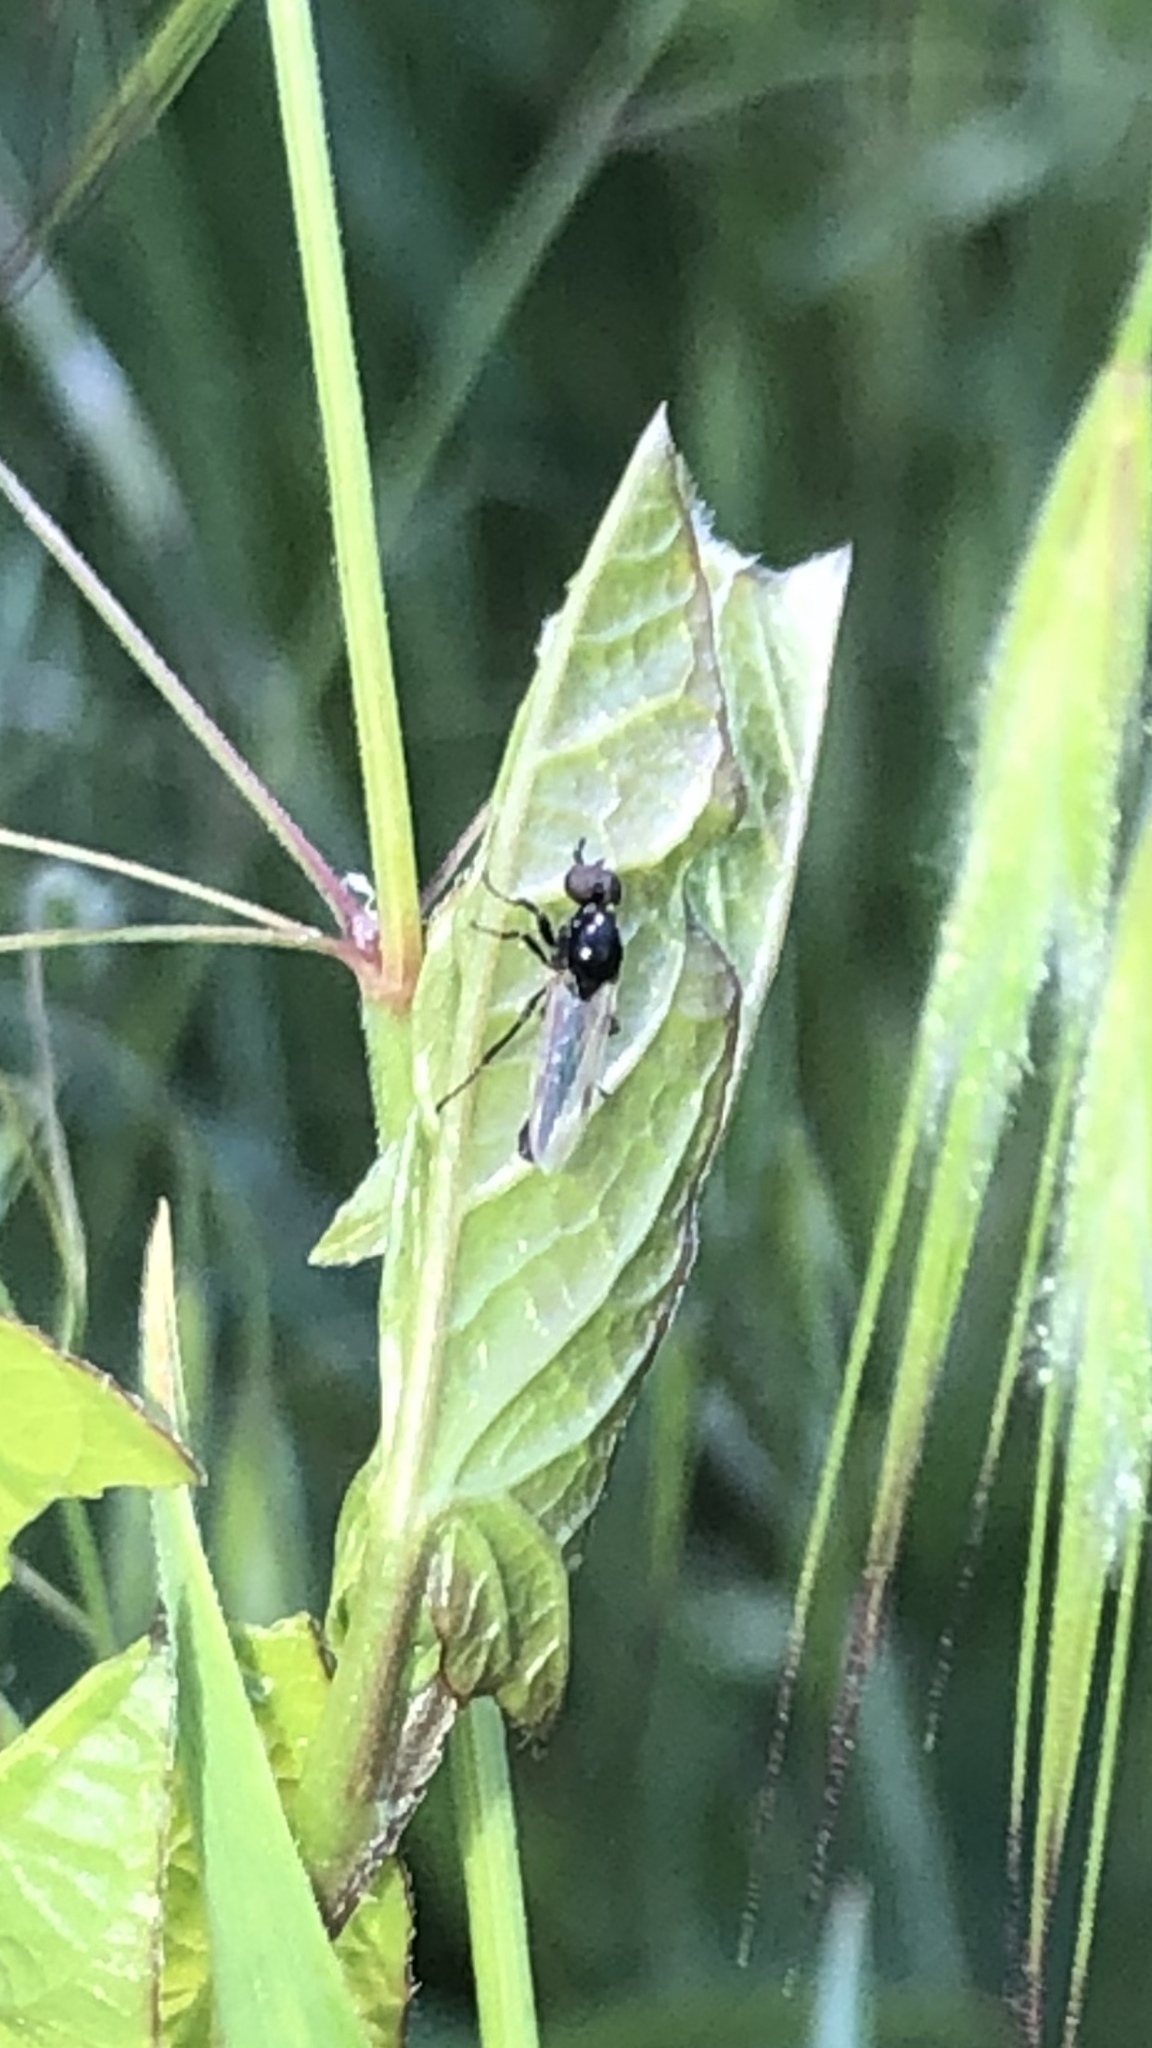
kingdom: Animalia
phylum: Arthropoda
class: Insecta
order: Diptera
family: Bibionidae
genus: Dilophus
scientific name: Dilophus
